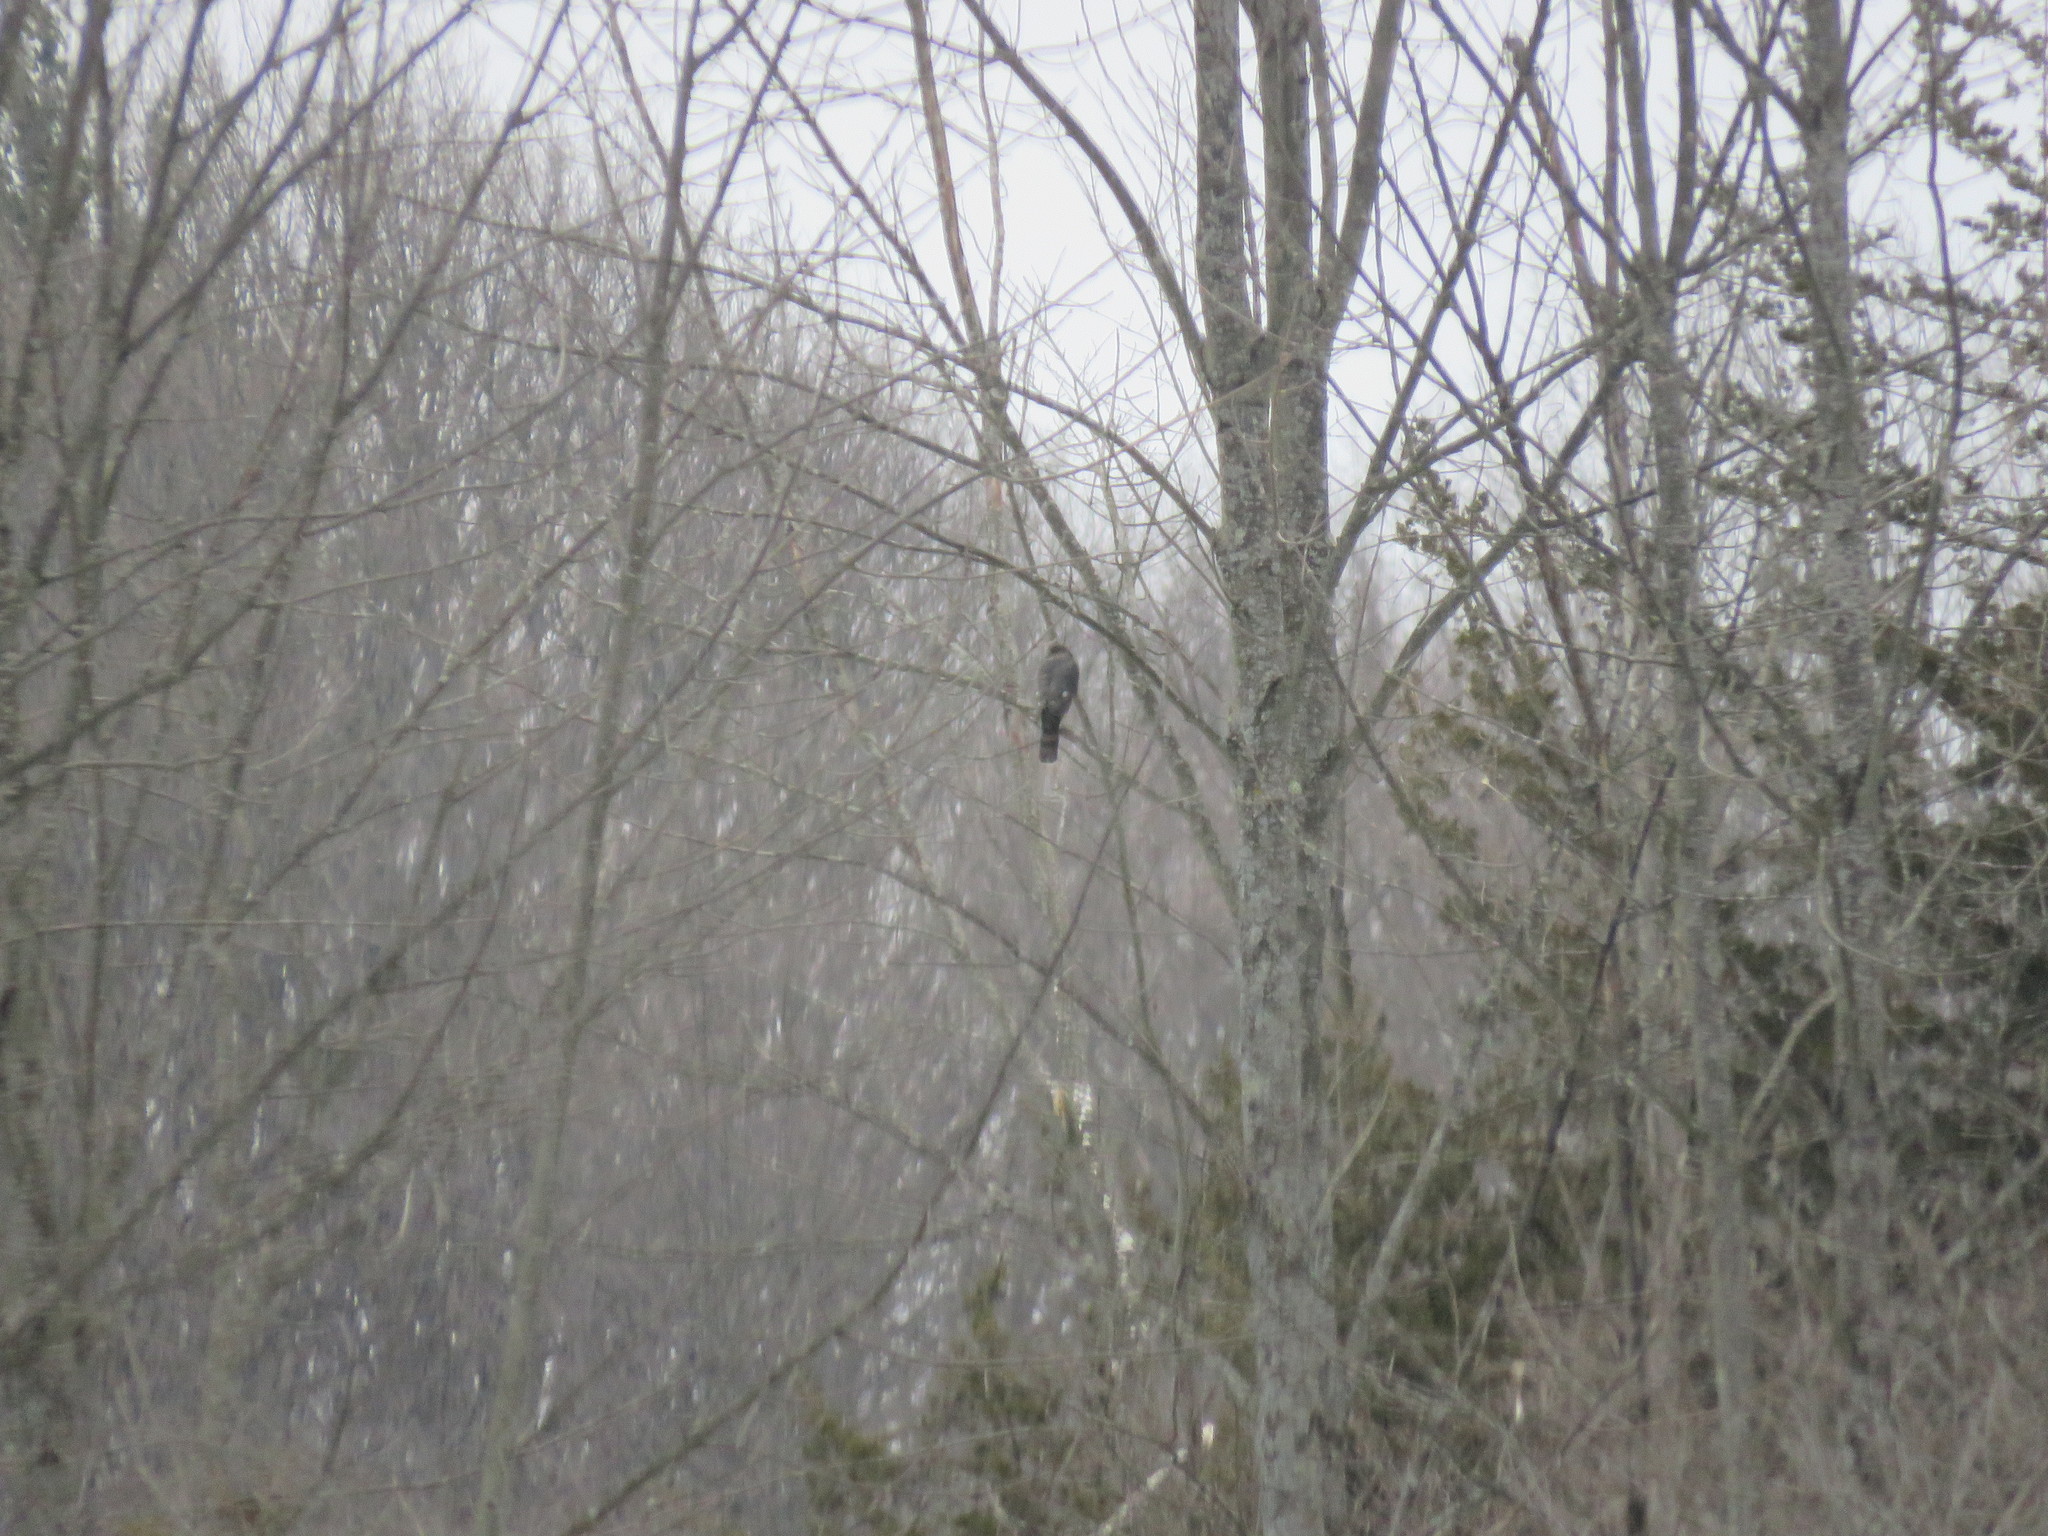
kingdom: Animalia
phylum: Chordata
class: Aves
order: Accipitriformes
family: Accipitridae
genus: Accipiter
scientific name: Accipiter striatus
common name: Sharp-shinned hawk
